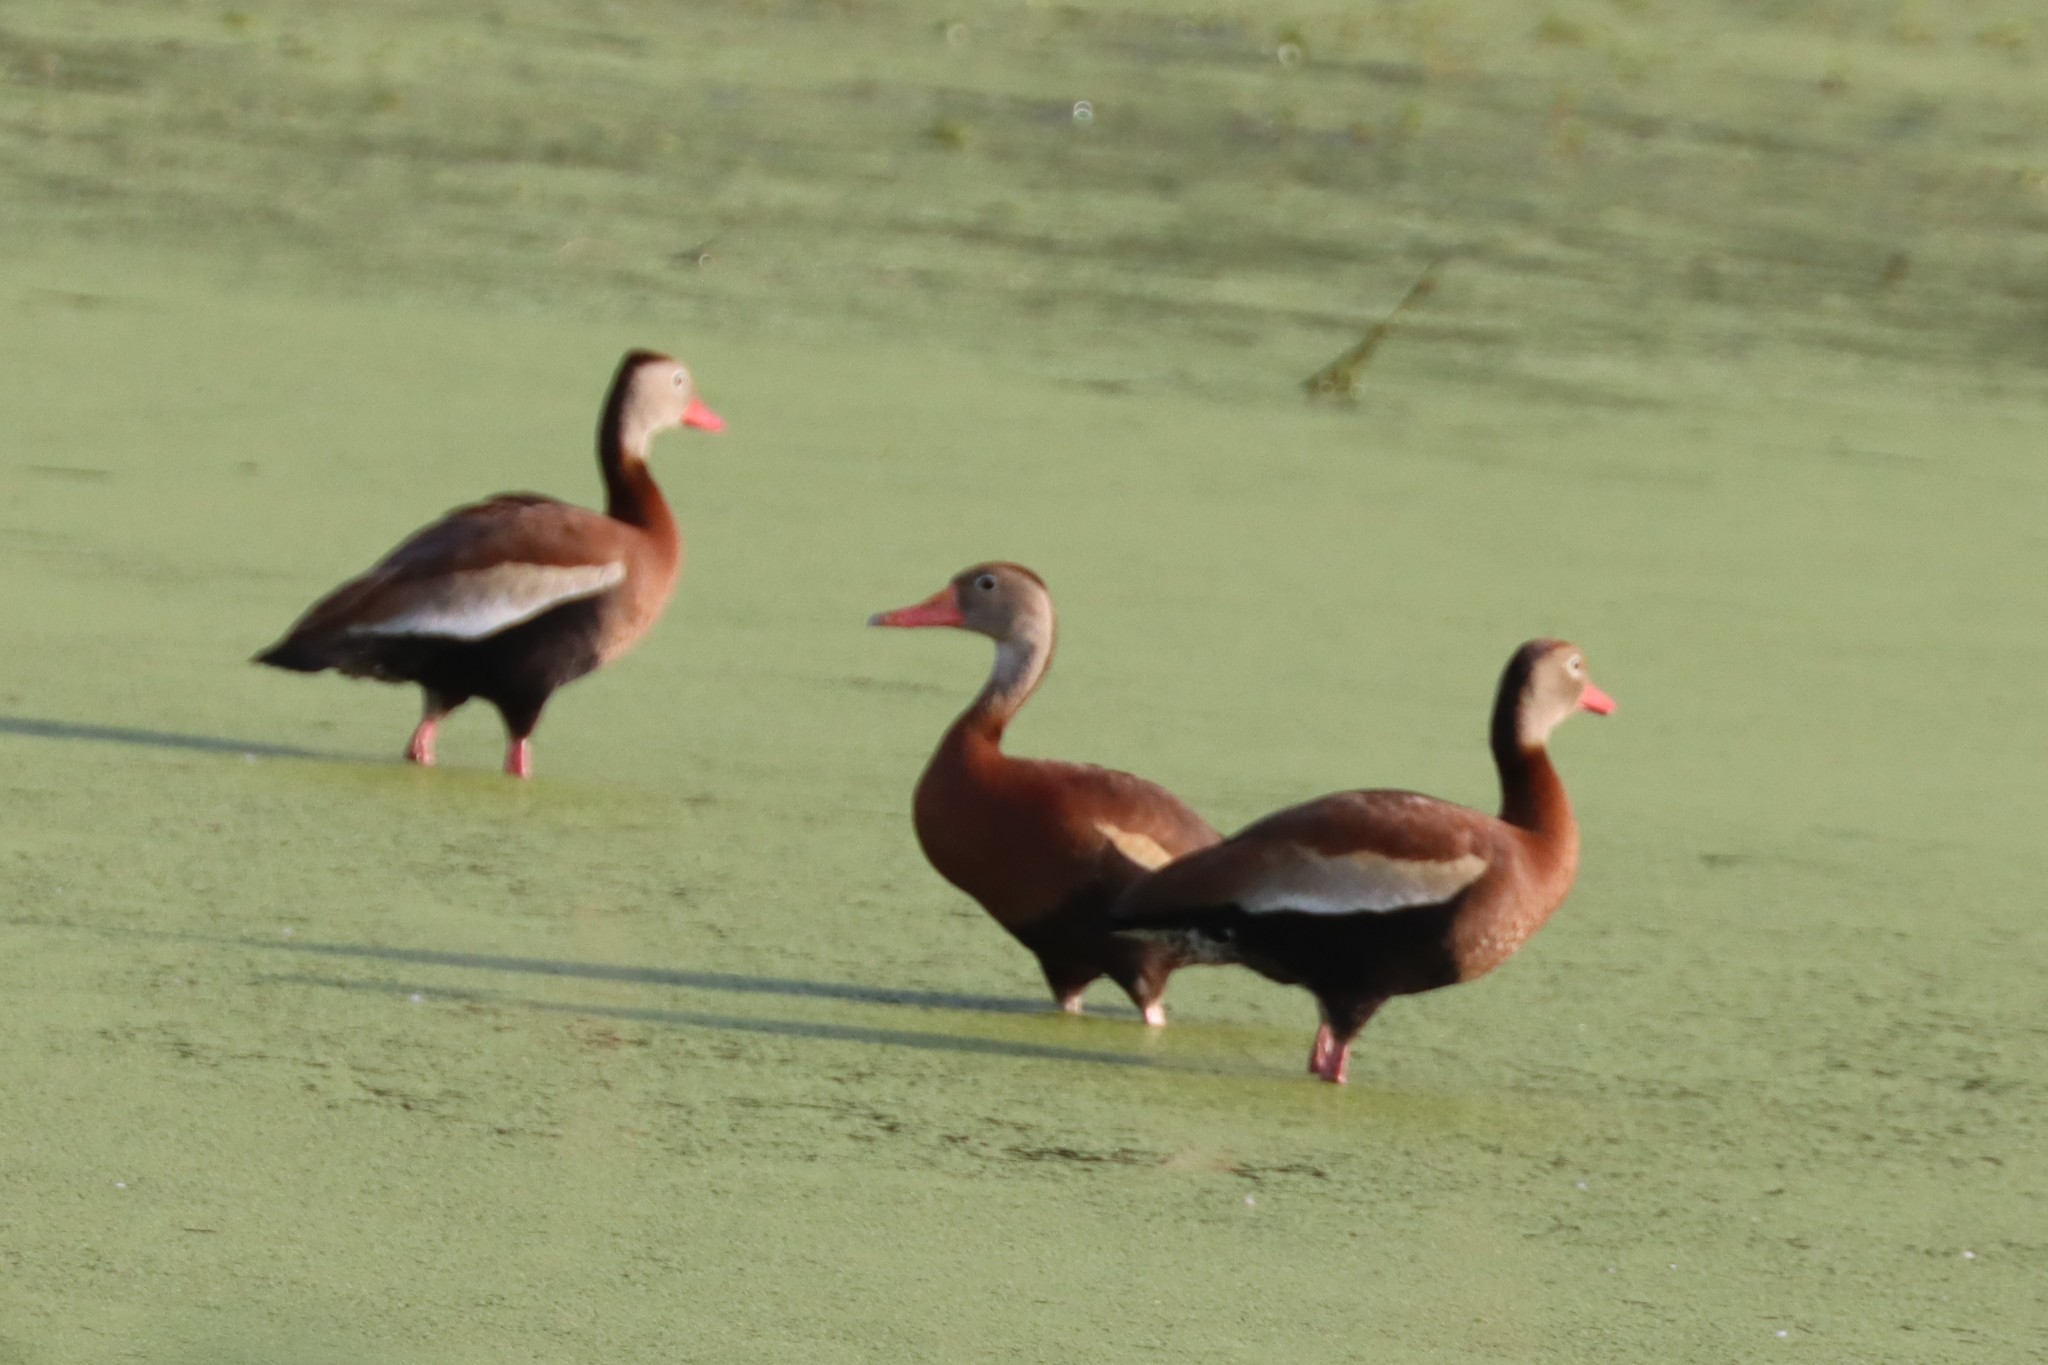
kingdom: Animalia
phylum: Chordata
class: Aves
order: Anseriformes
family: Anatidae
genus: Dendrocygna
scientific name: Dendrocygna autumnalis
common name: Black-bellied whistling duck
